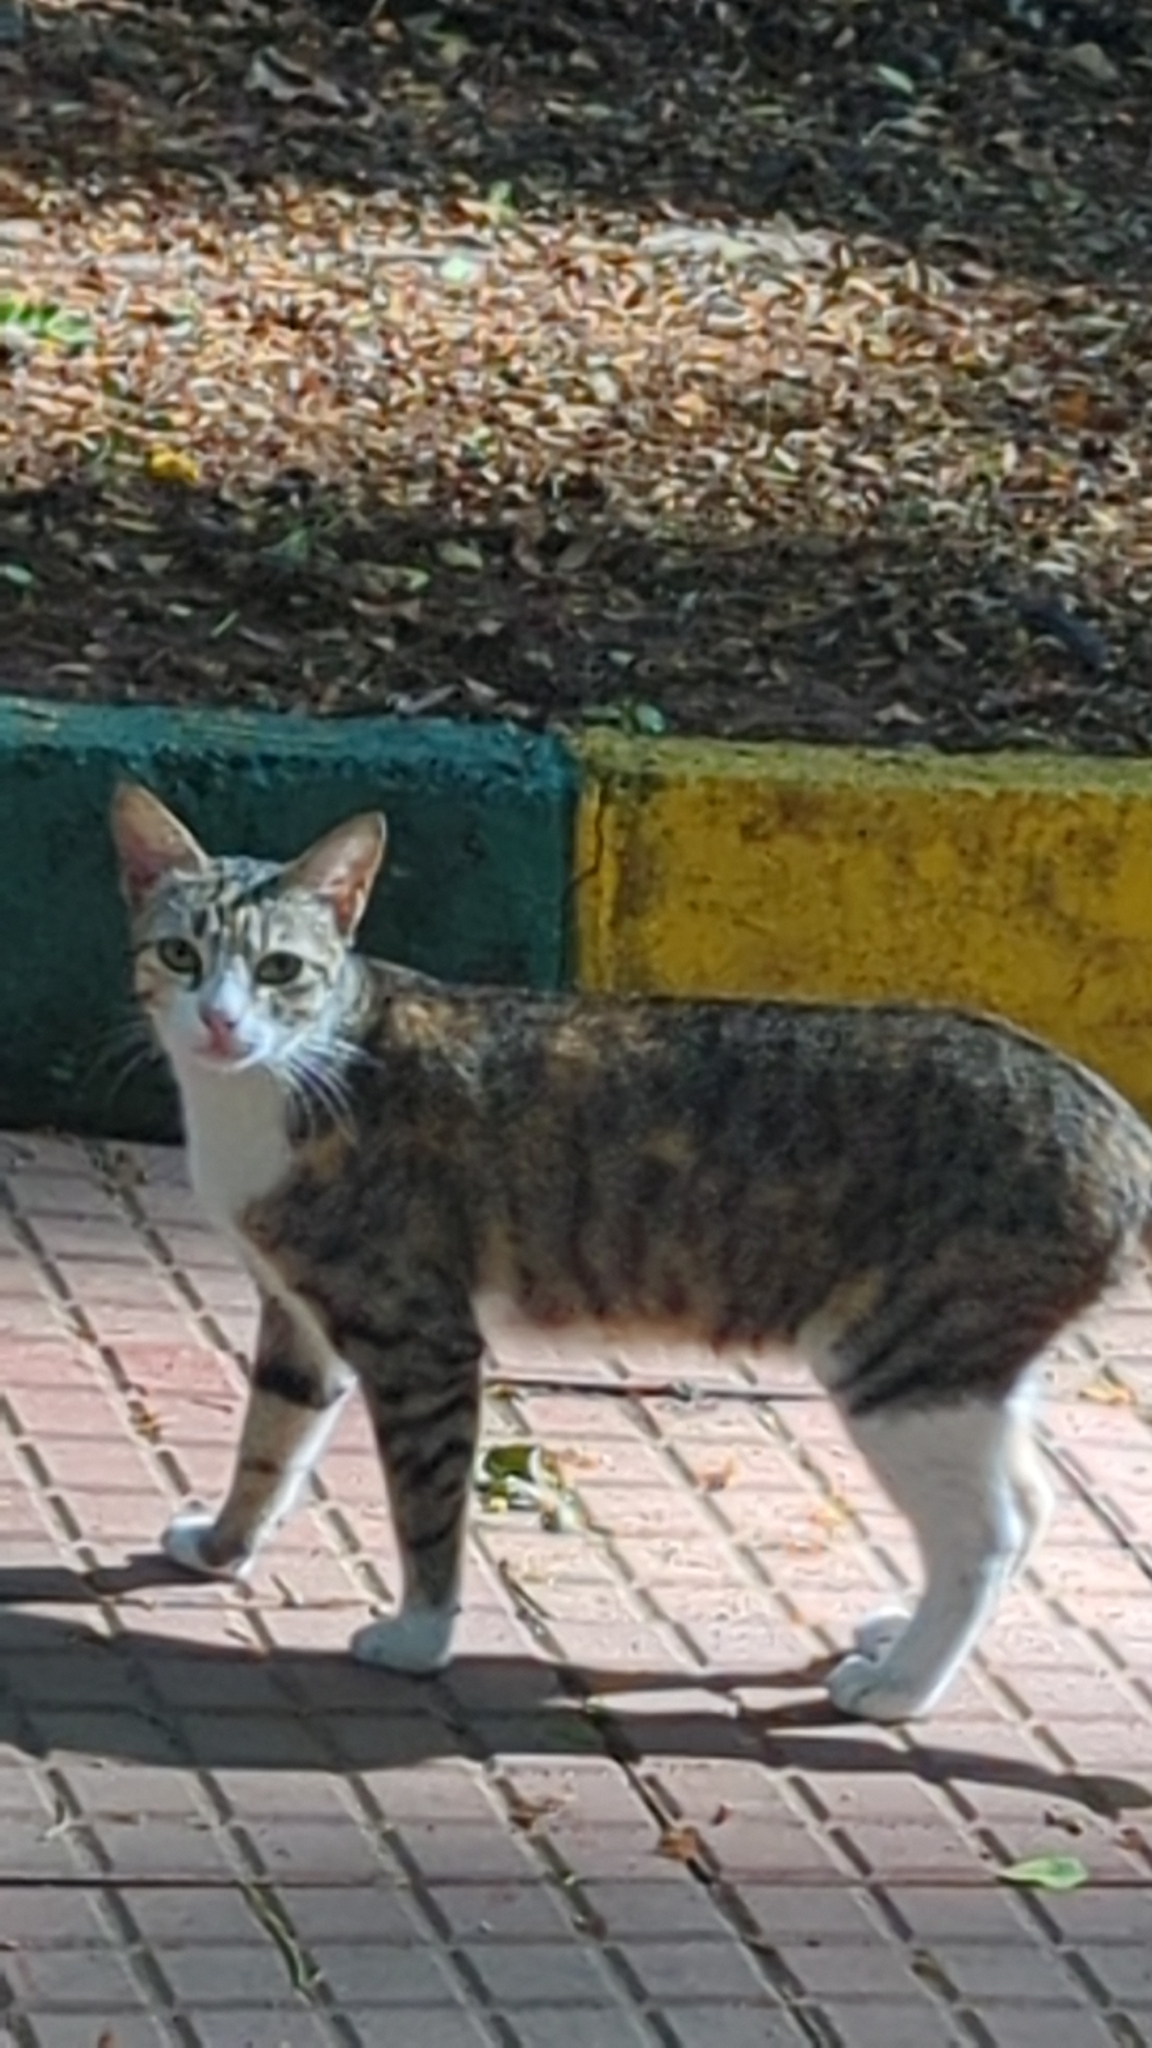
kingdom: Animalia
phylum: Chordata
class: Mammalia
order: Carnivora
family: Felidae
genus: Felis
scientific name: Felis catus
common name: Domestic cat
